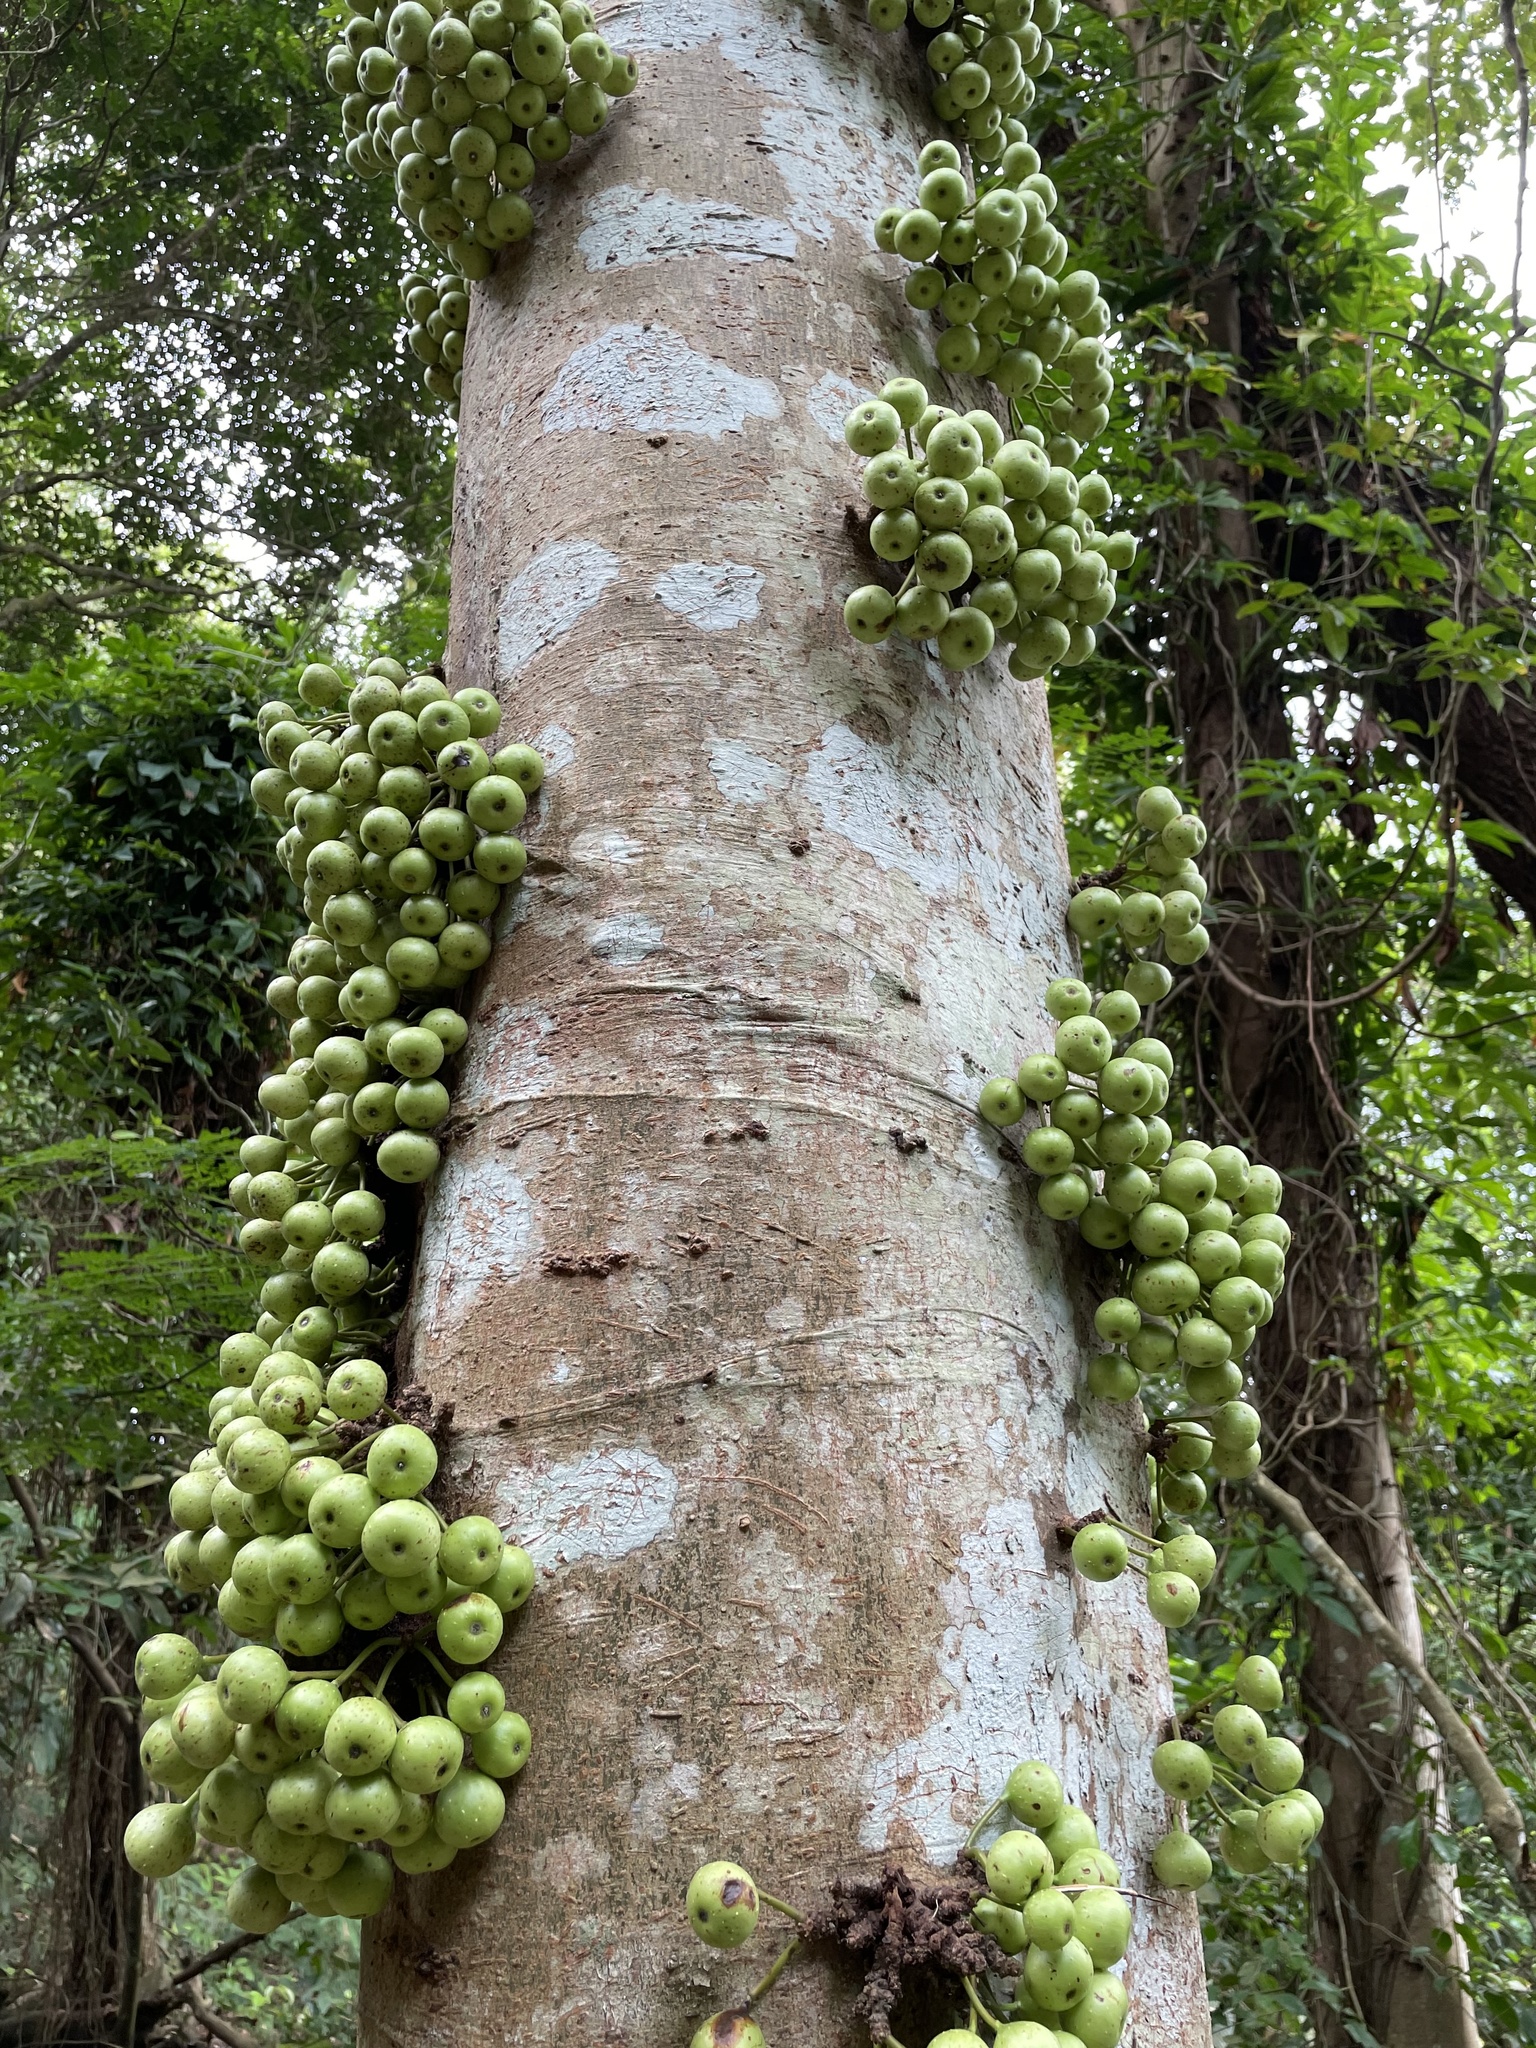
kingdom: Plantae
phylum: Tracheophyta
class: Magnoliopsida
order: Rosales
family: Moraceae
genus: Ficus
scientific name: Ficus variegata
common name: Variegated fig
